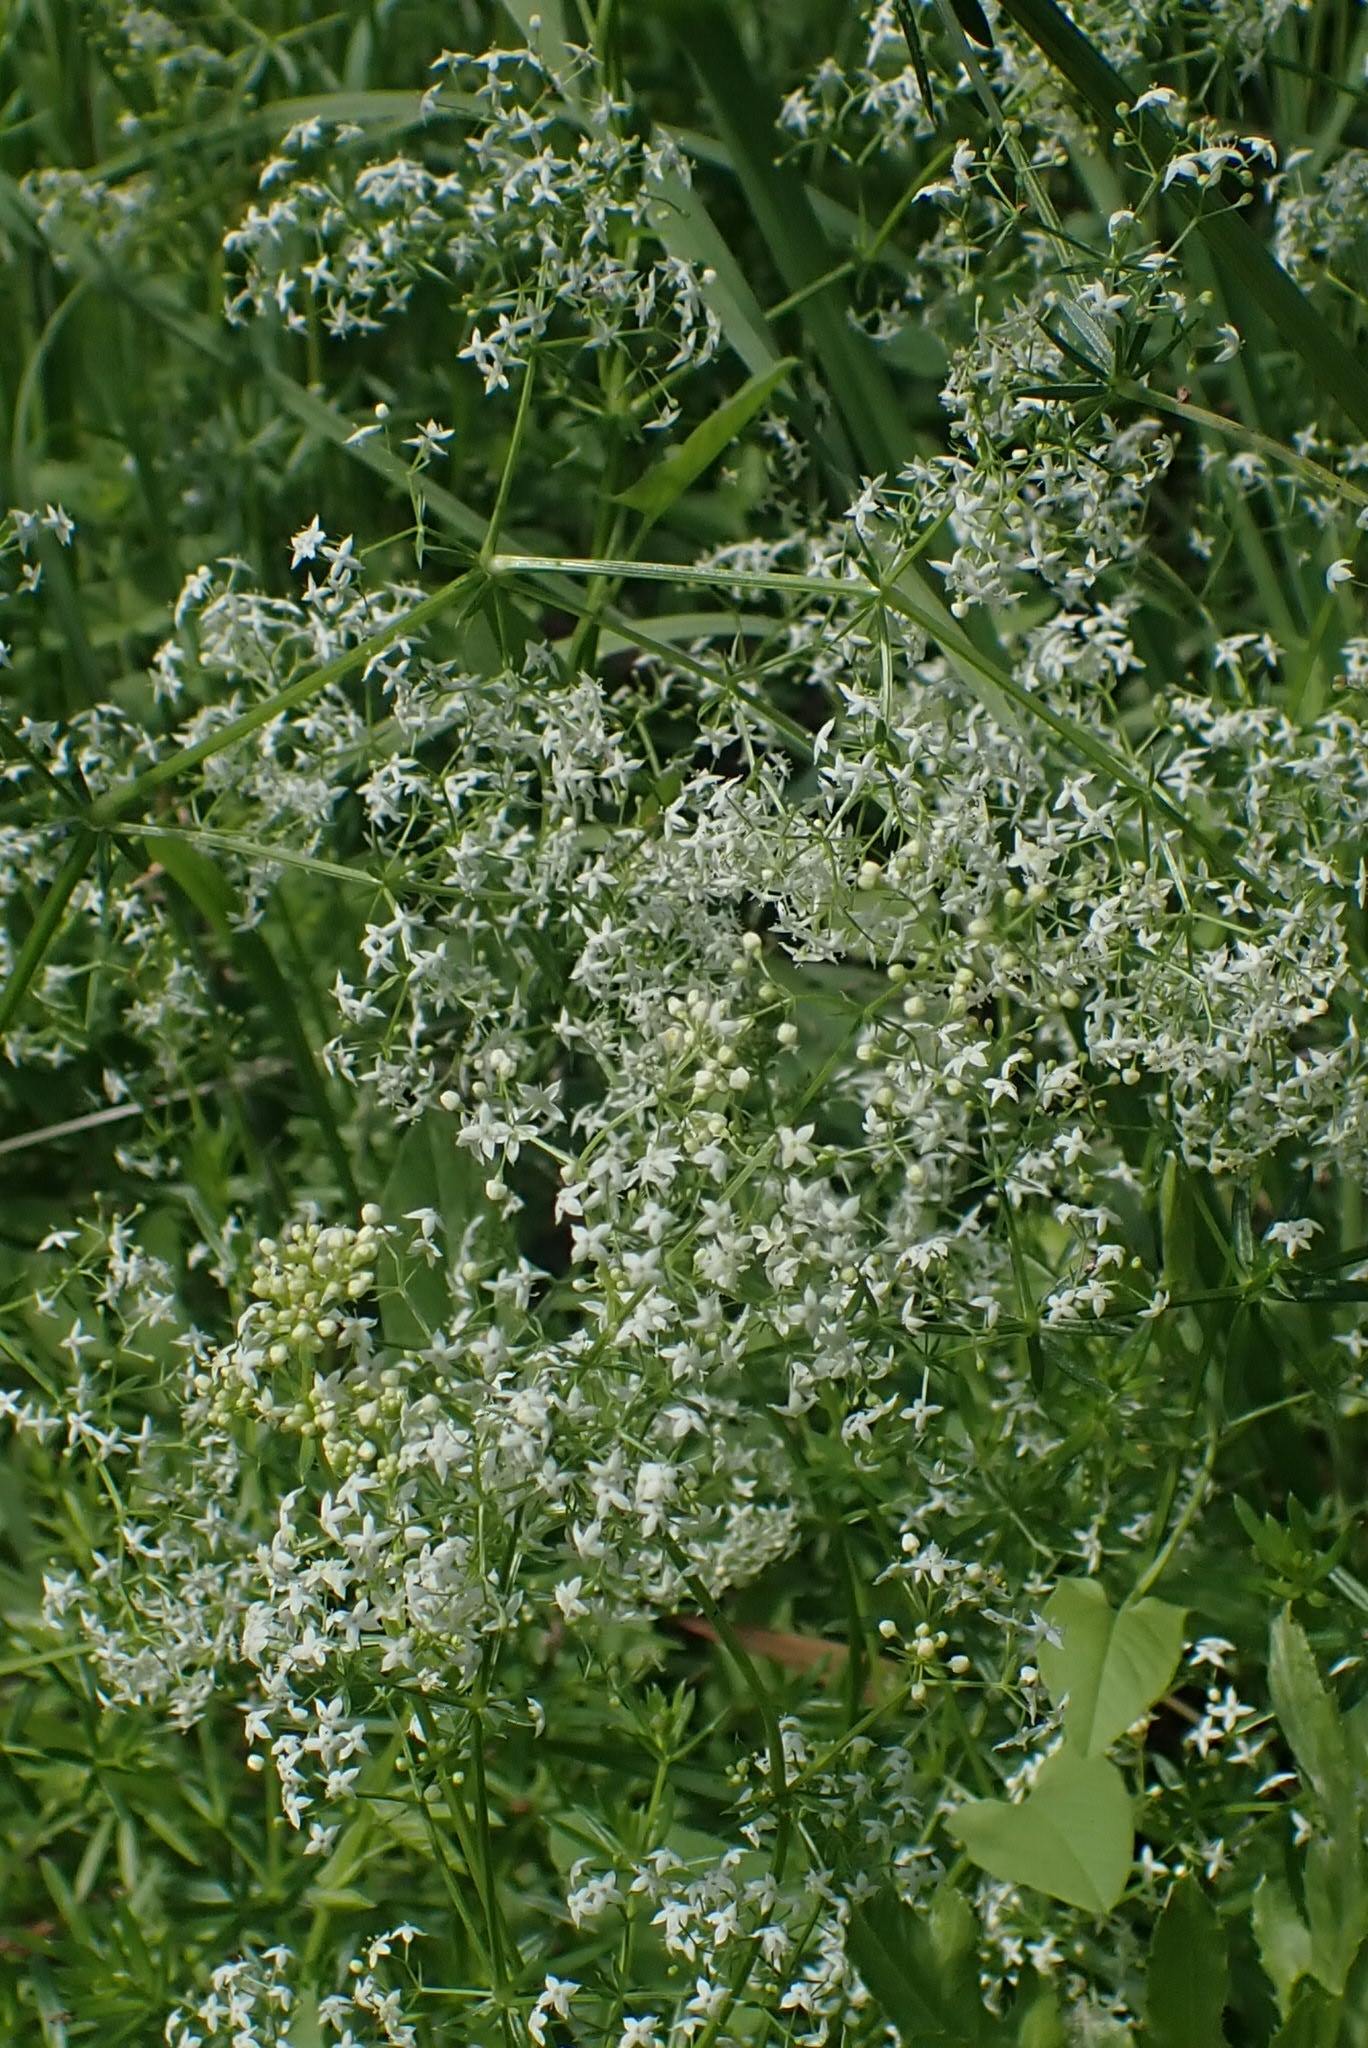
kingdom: Plantae
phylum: Tracheophyta
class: Magnoliopsida
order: Gentianales
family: Rubiaceae
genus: Galium
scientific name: Galium mollugo
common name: Hedge bedstraw
